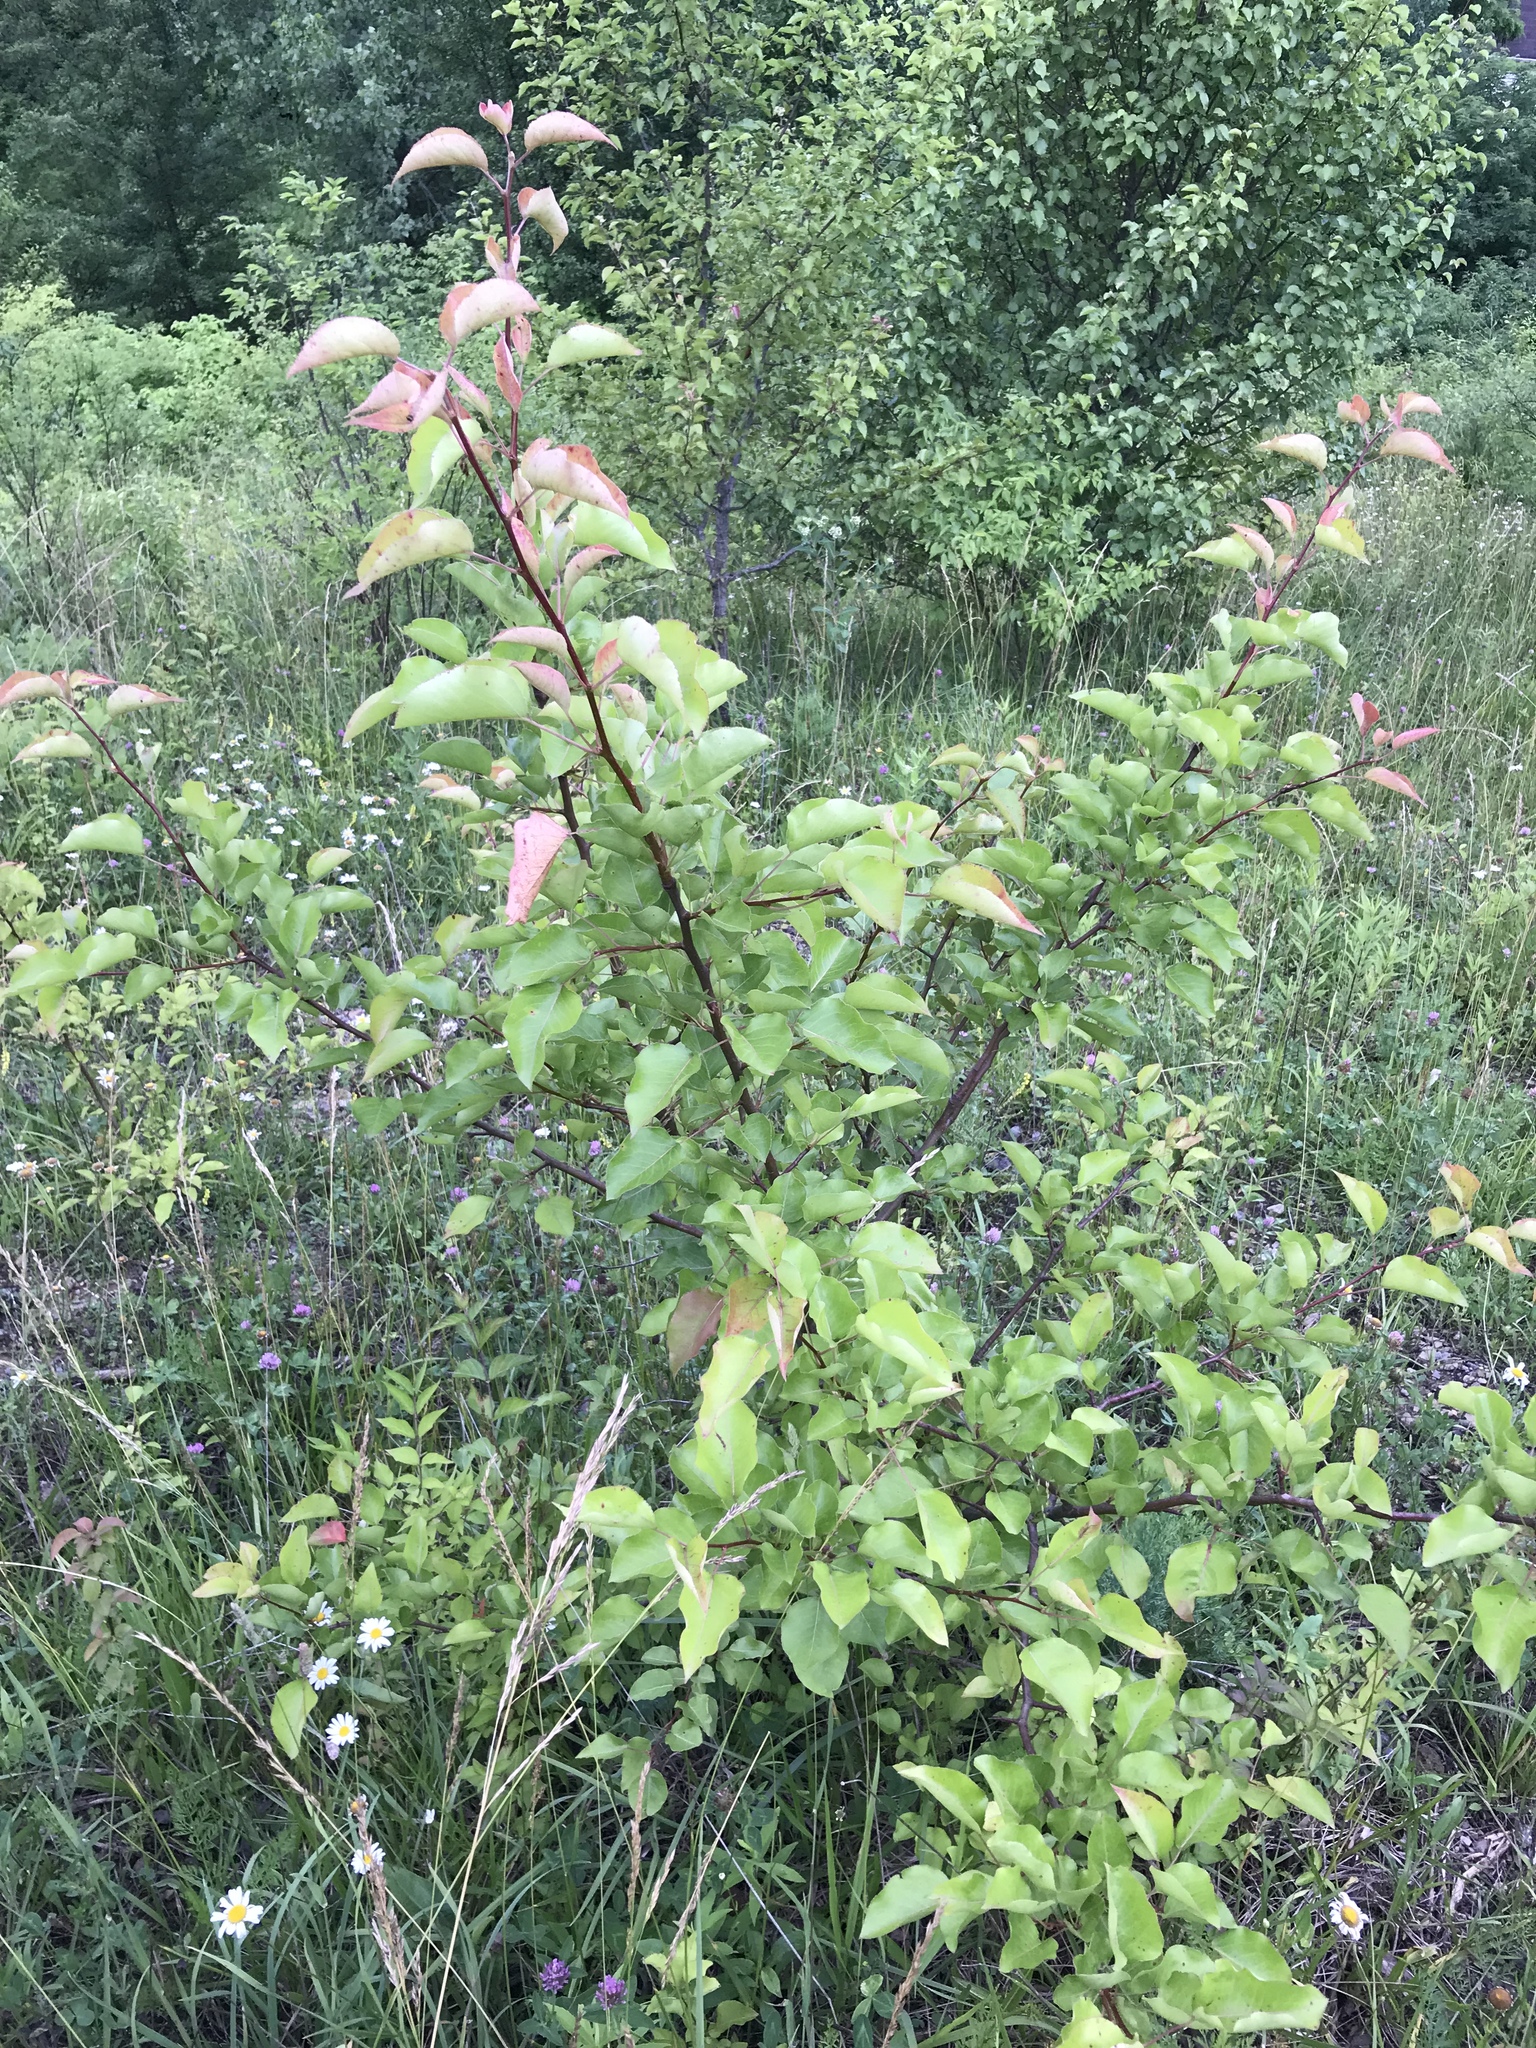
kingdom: Plantae
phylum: Tracheophyta
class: Magnoliopsida
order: Rosales
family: Rosaceae
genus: Pyrus
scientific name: Pyrus calleryana
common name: Callery pear
